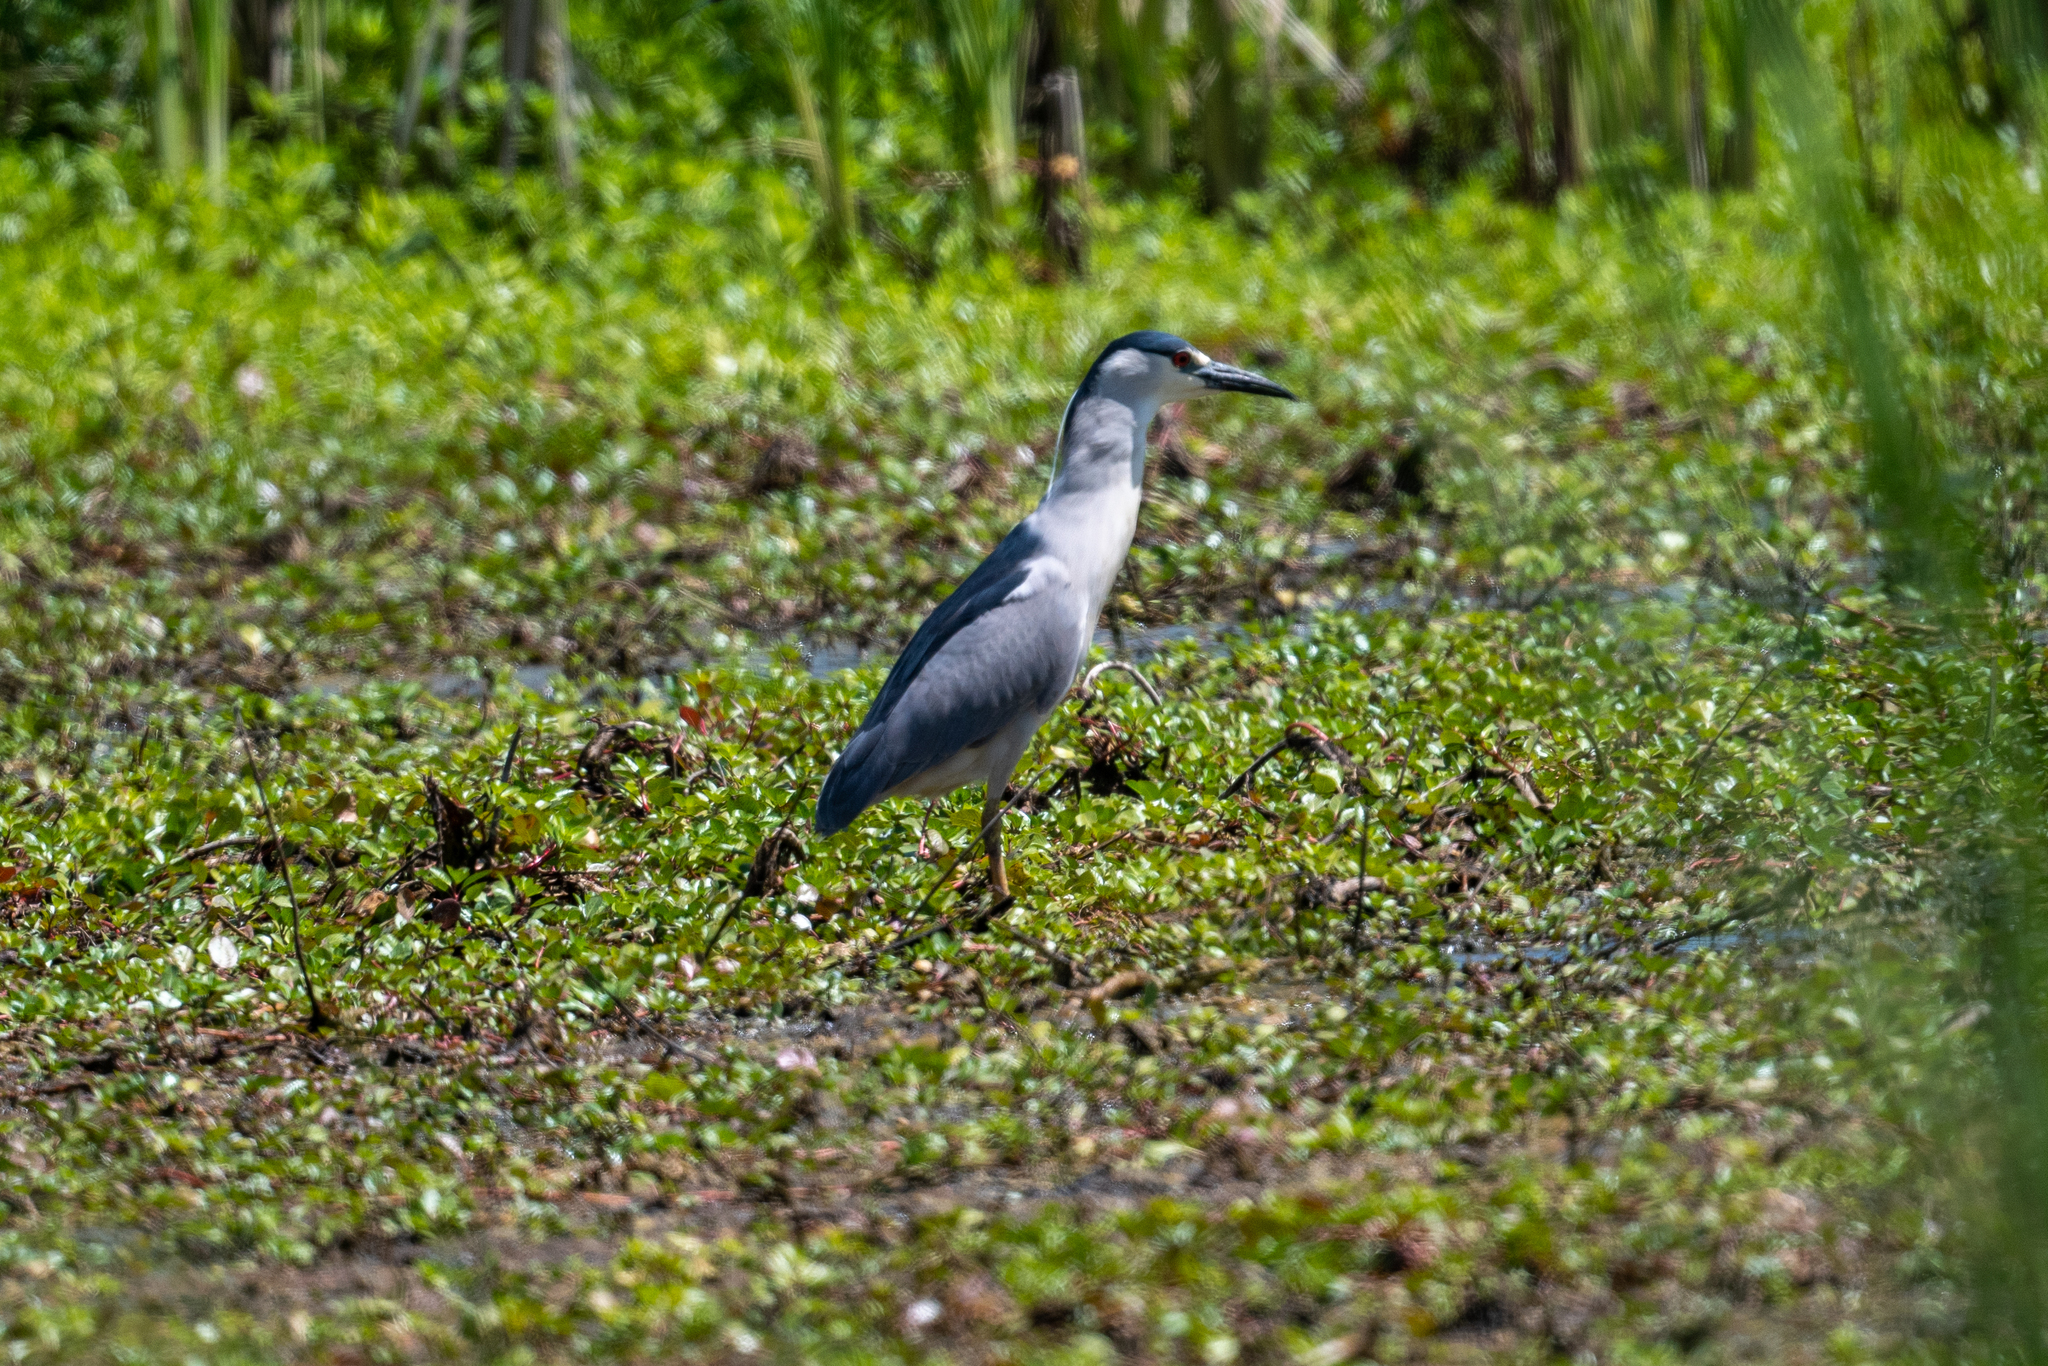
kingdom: Animalia
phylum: Chordata
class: Aves
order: Pelecaniformes
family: Ardeidae
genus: Nycticorax
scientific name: Nycticorax nycticorax
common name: Black-crowned night heron
